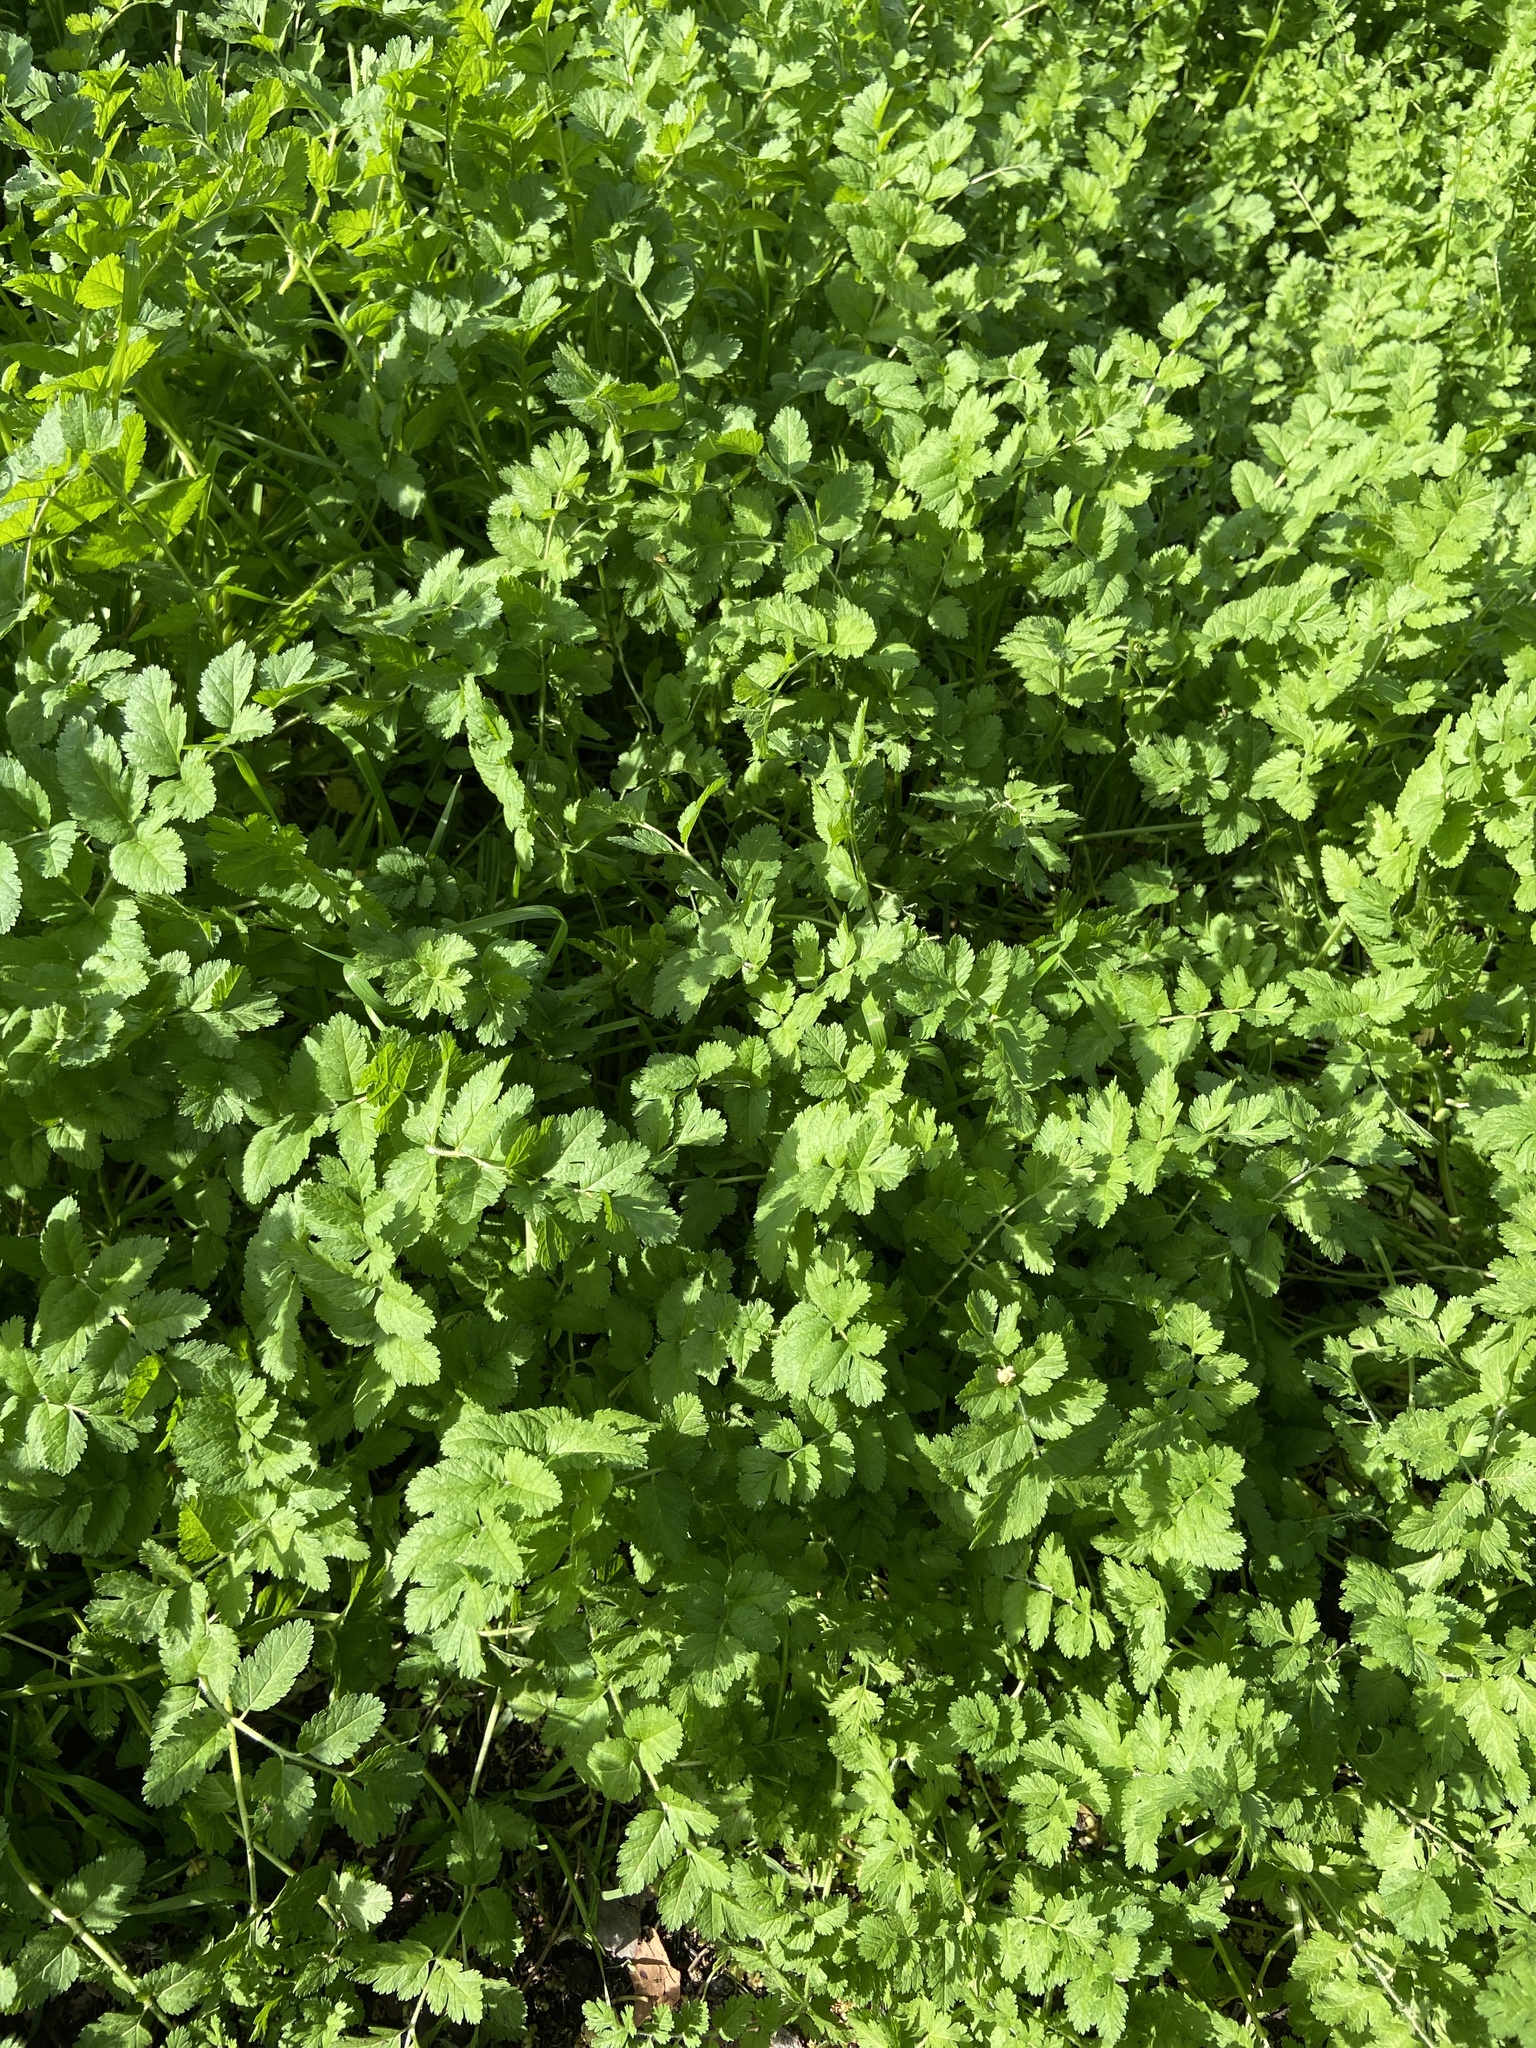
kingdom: Plantae
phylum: Tracheophyta
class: Magnoliopsida
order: Geraniales
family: Geraniaceae
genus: Erodium
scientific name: Erodium moschatum
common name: Musk stork's-bill
